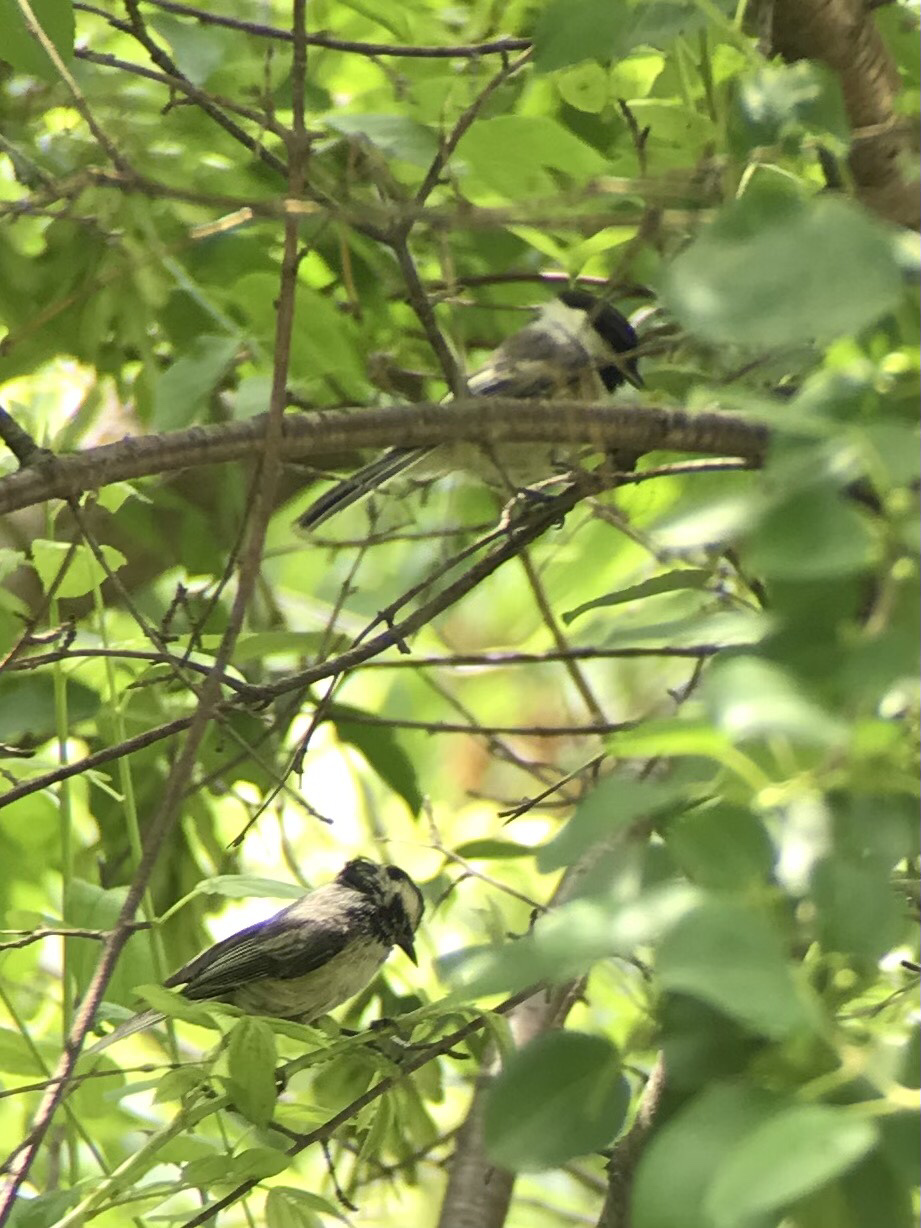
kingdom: Animalia
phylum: Chordata
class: Aves
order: Passeriformes
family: Paridae
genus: Poecile
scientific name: Poecile atricapillus
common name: Black-capped chickadee
